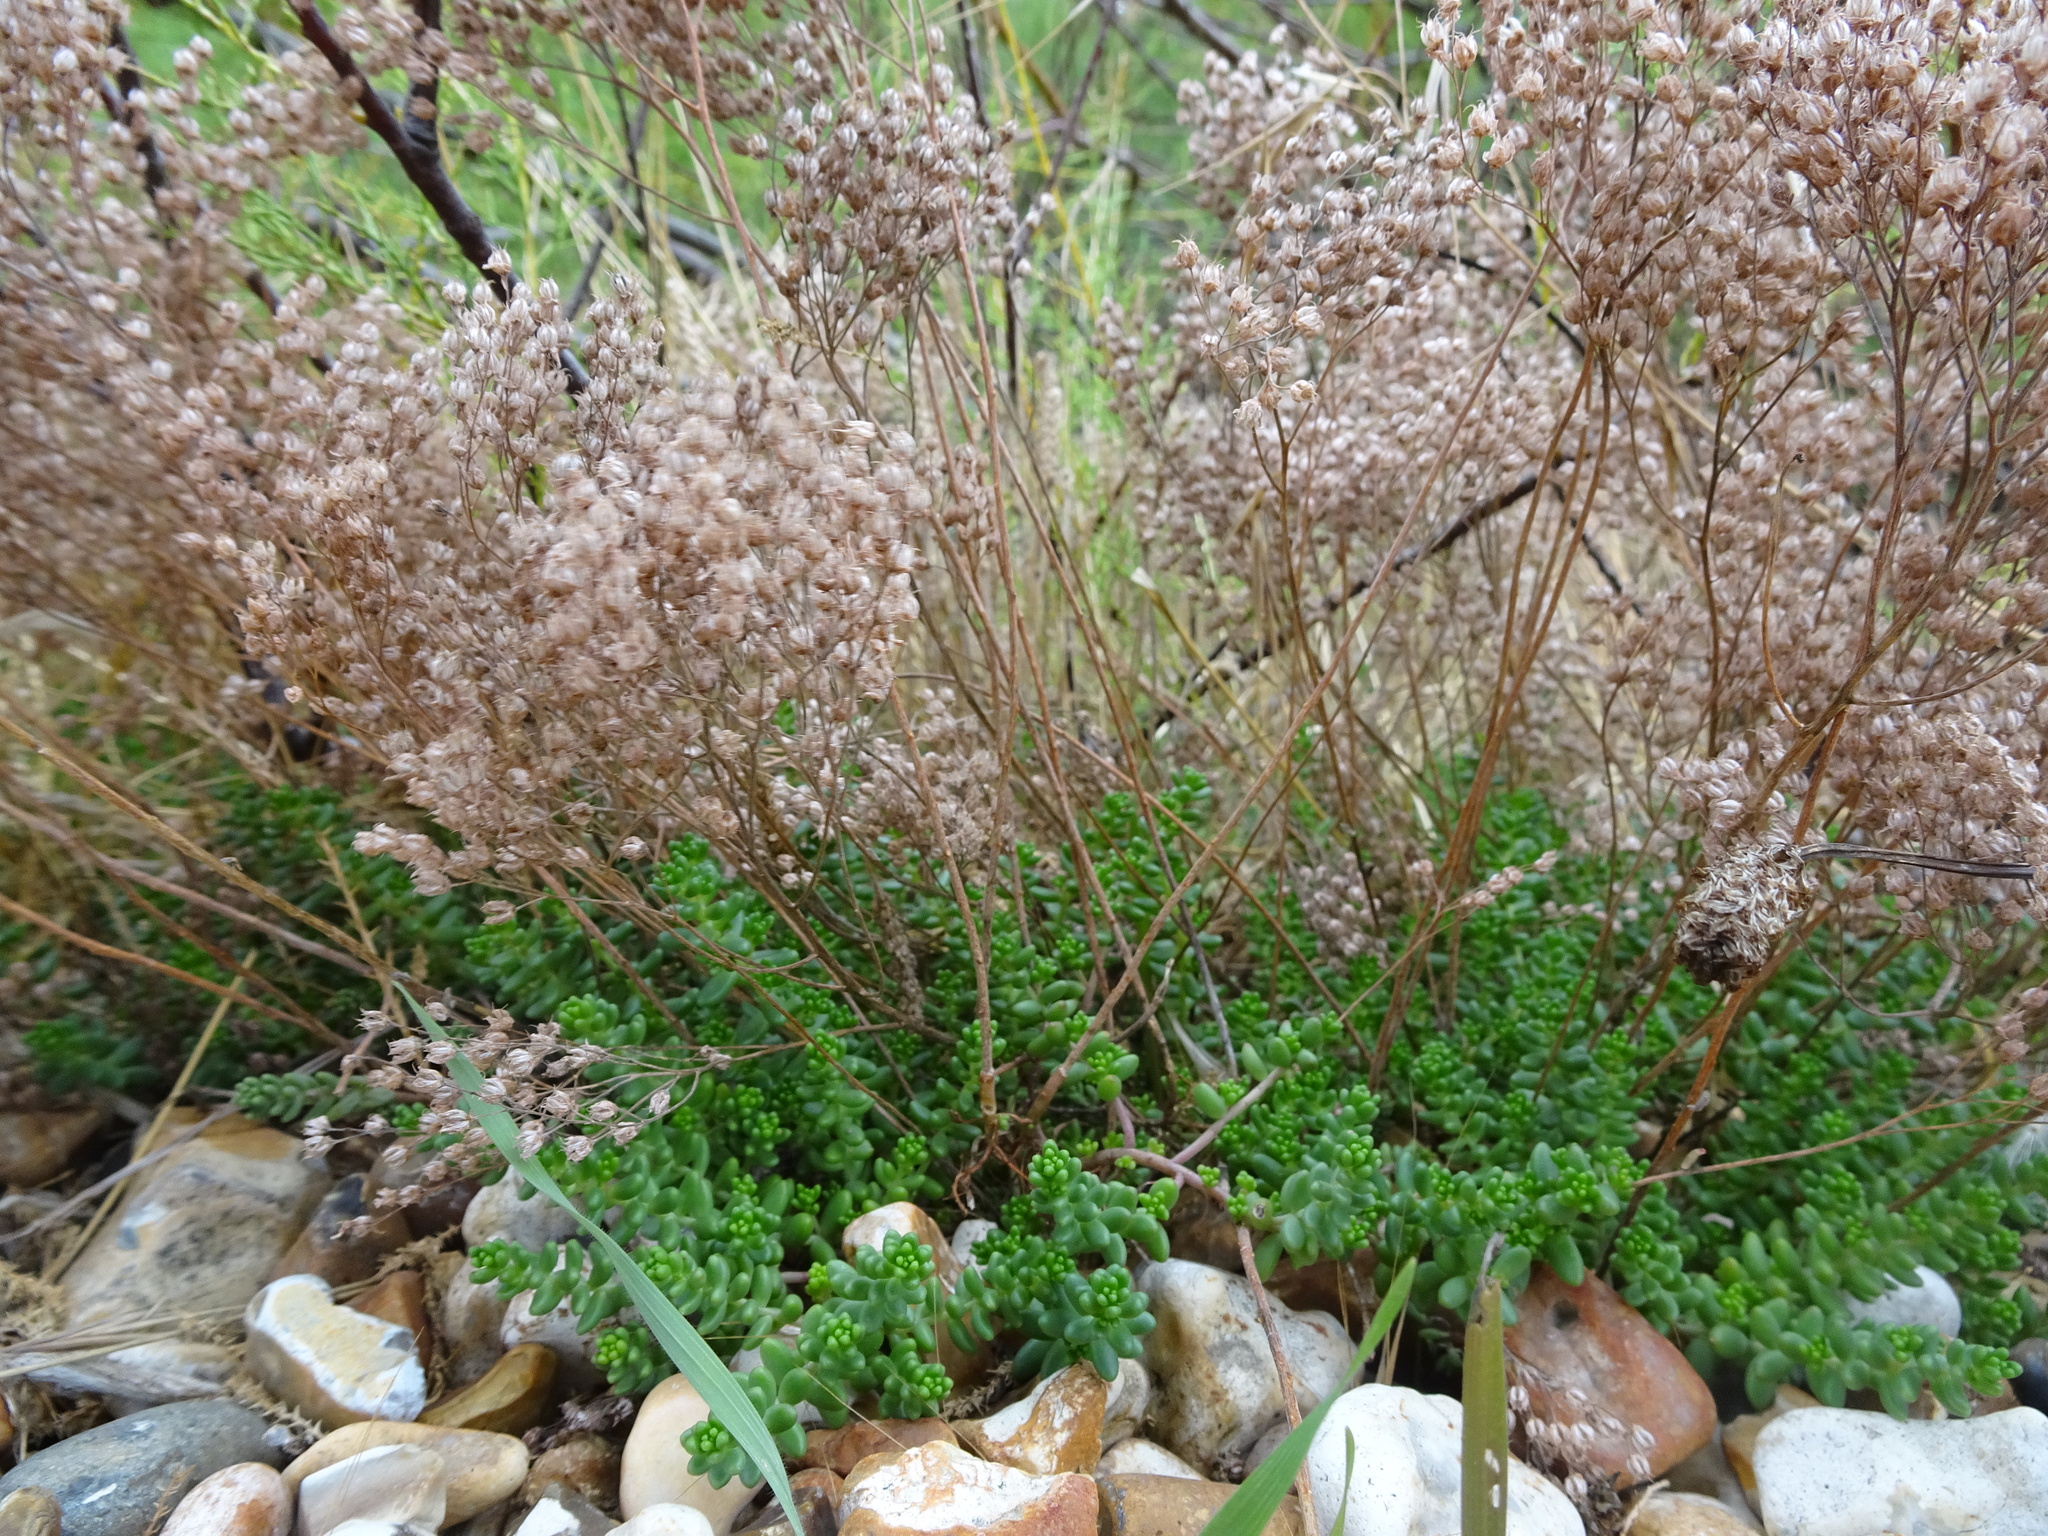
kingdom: Plantae
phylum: Tracheophyta
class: Magnoliopsida
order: Saxifragales
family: Crassulaceae
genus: Sedum
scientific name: Sedum album
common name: White stonecrop
